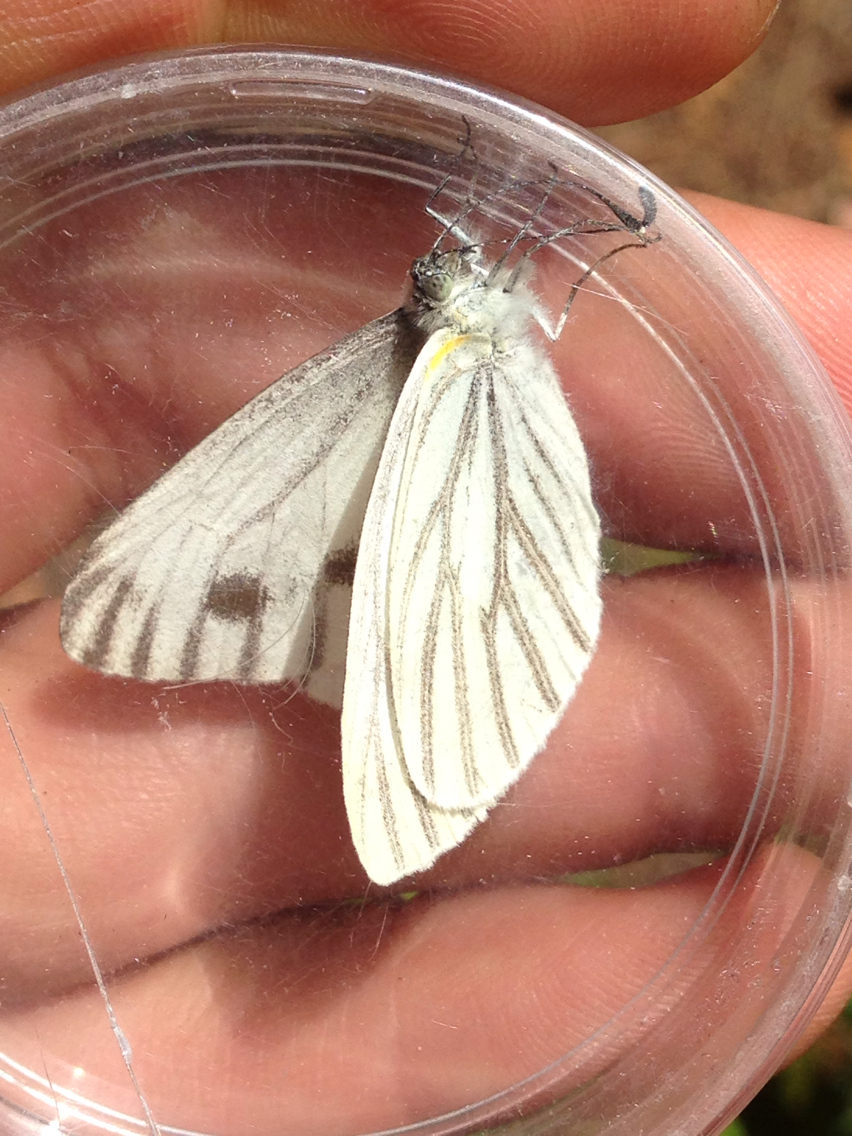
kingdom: Animalia
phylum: Arthropoda
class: Insecta
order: Lepidoptera
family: Pieridae
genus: Pieris
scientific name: Pieris marginalis
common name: Margined white
